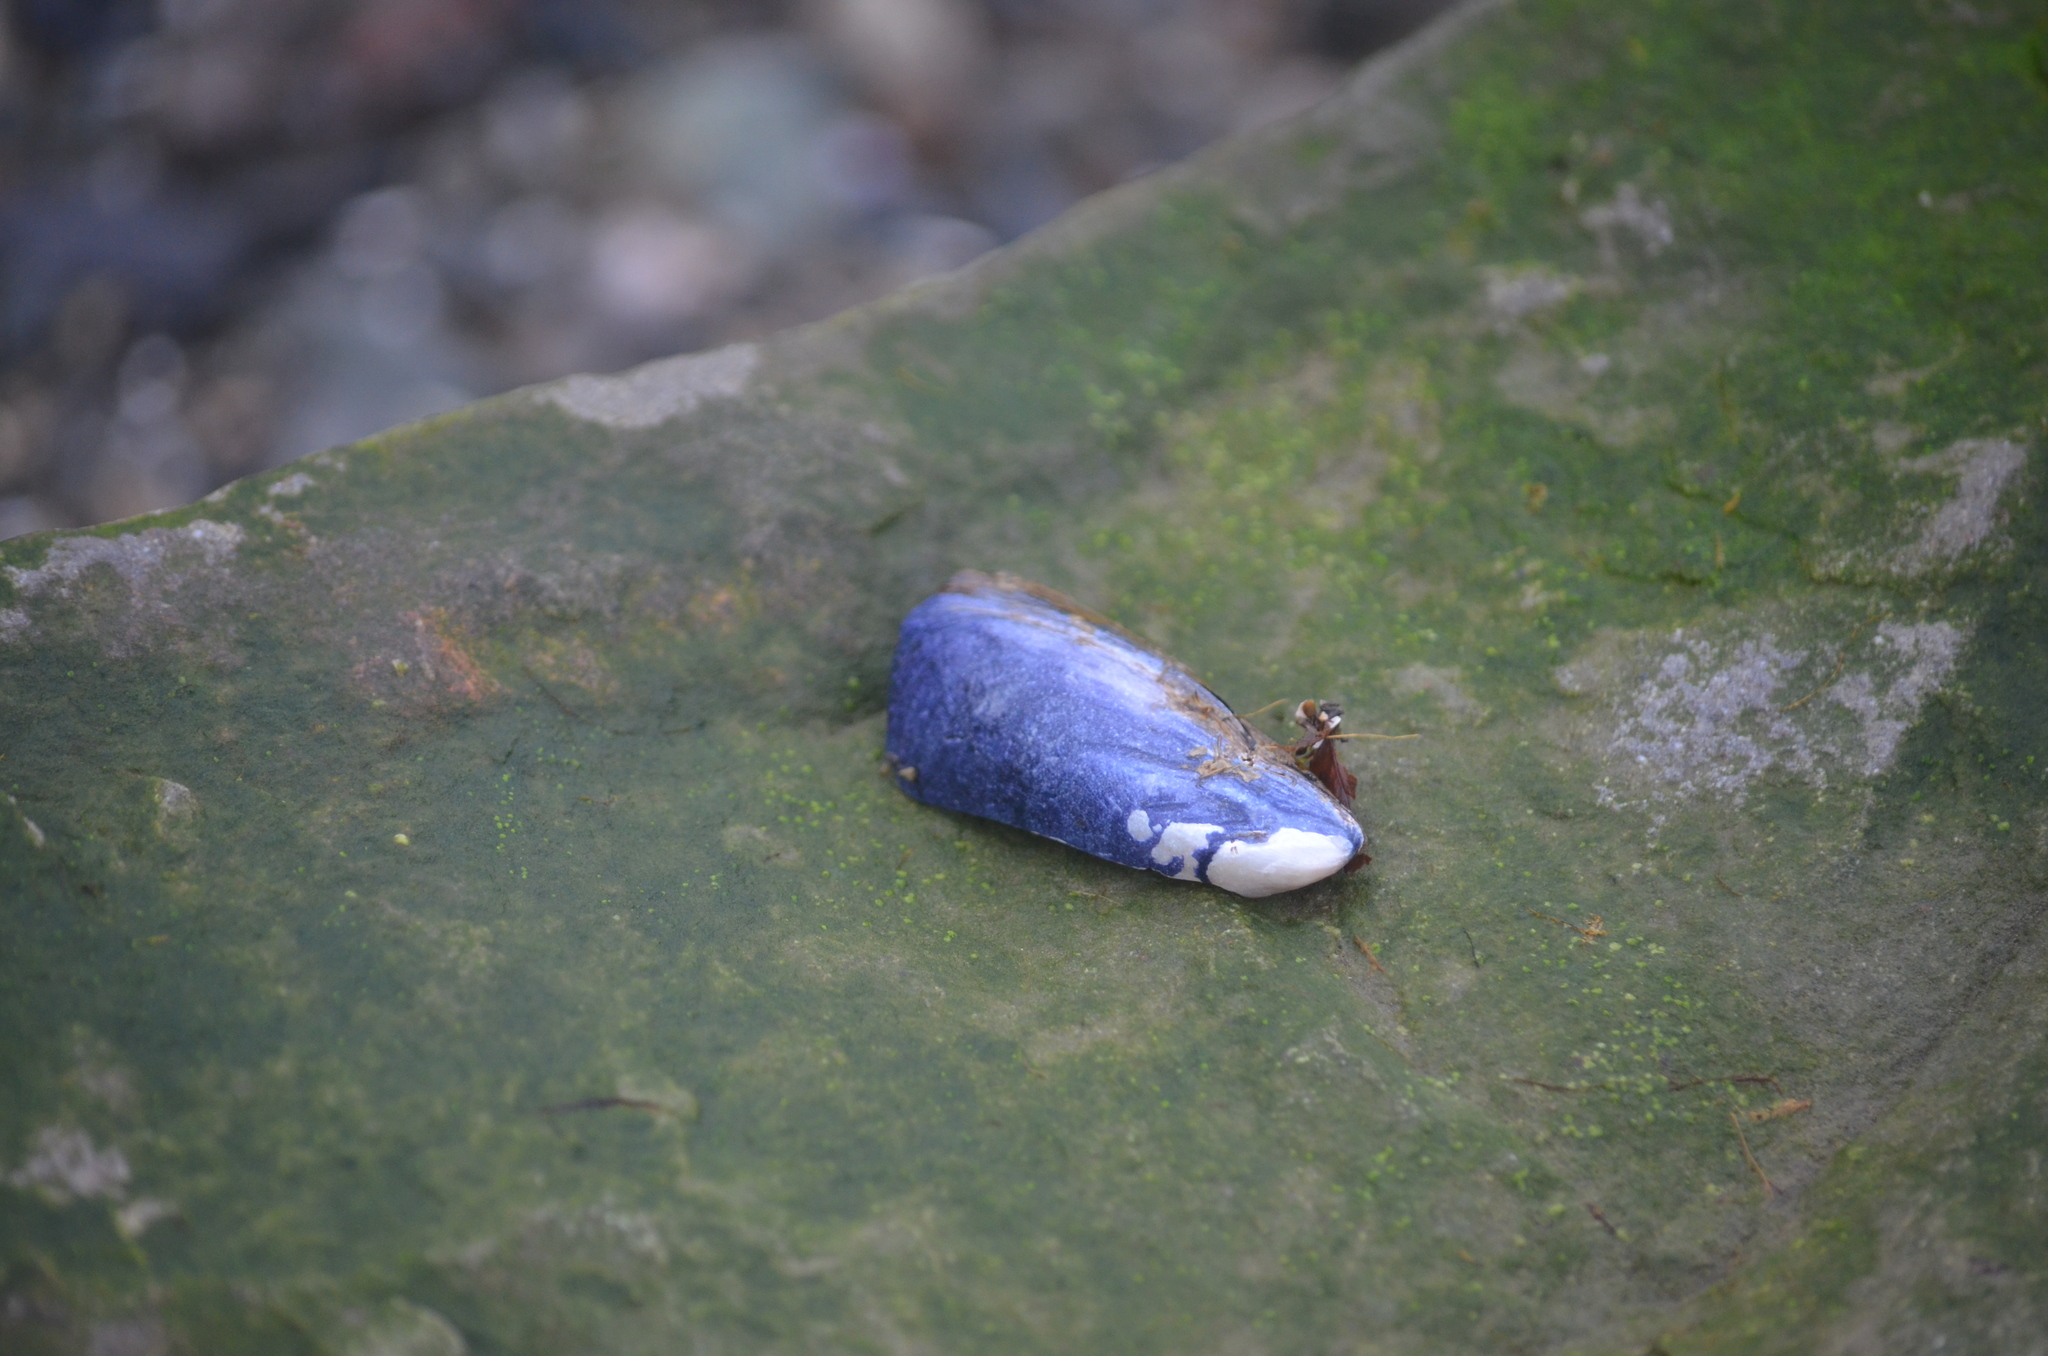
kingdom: Animalia
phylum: Mollusca
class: Bivalvia
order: Mytilida
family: Mytilidae
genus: Mytilus
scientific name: Mytilus
